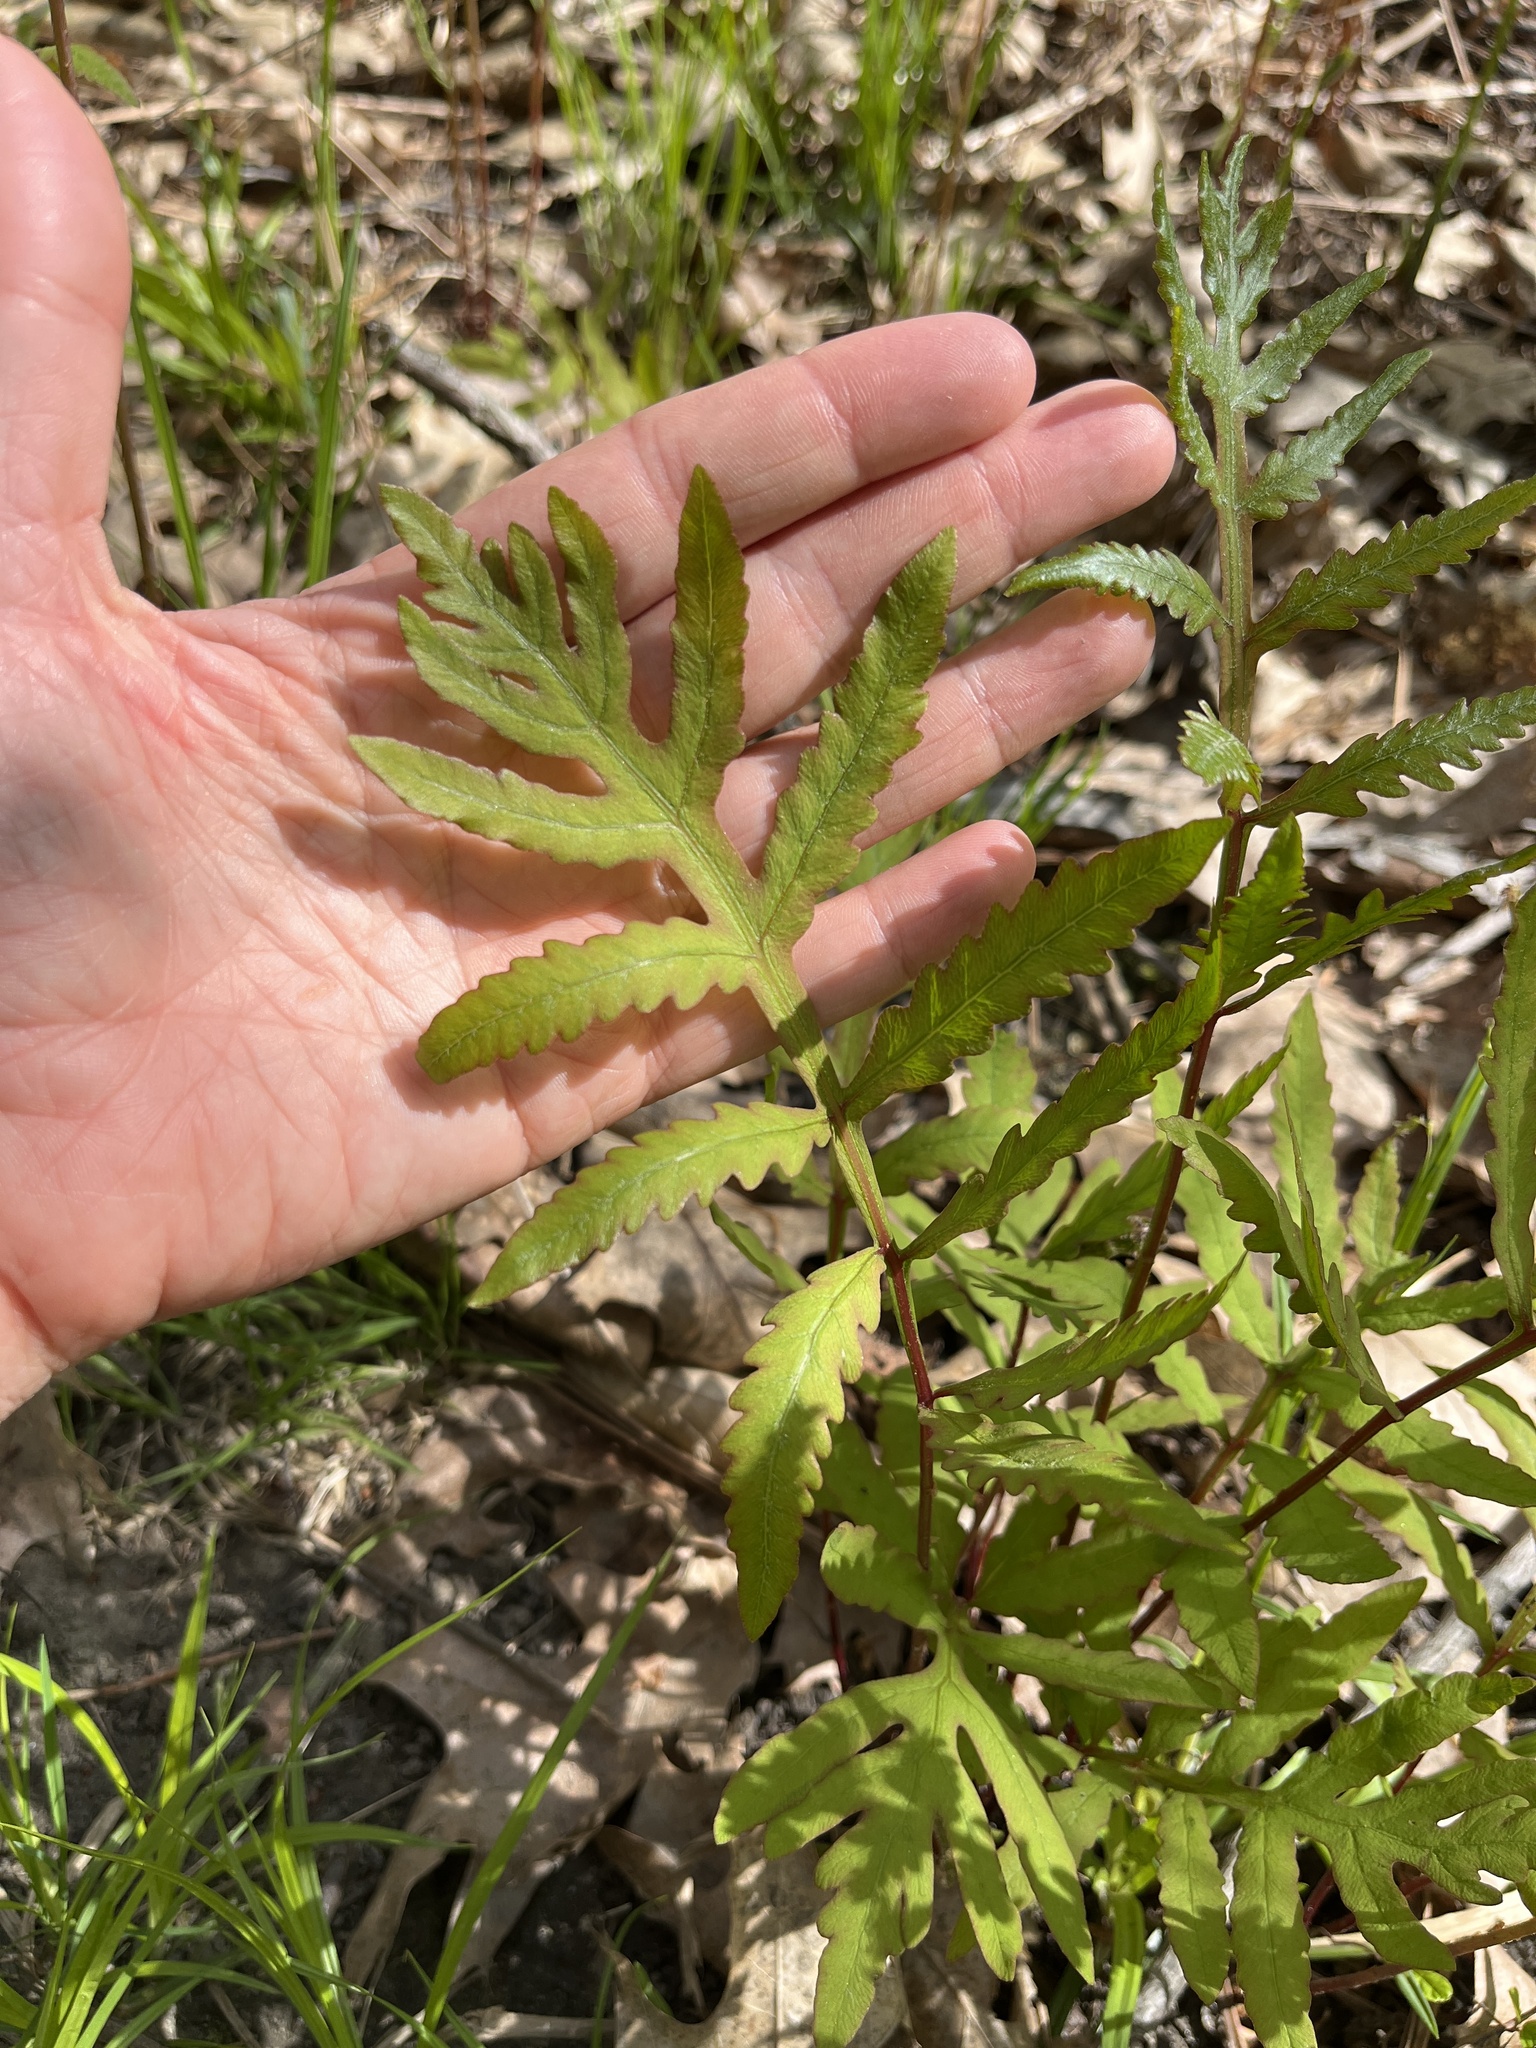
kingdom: Plantae
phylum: Tracheophyta
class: Polypodiopsida
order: Polypodiales
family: Onocleaceae
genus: Onoclea
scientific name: Onoclea sensibilis
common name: Sensitive fern
